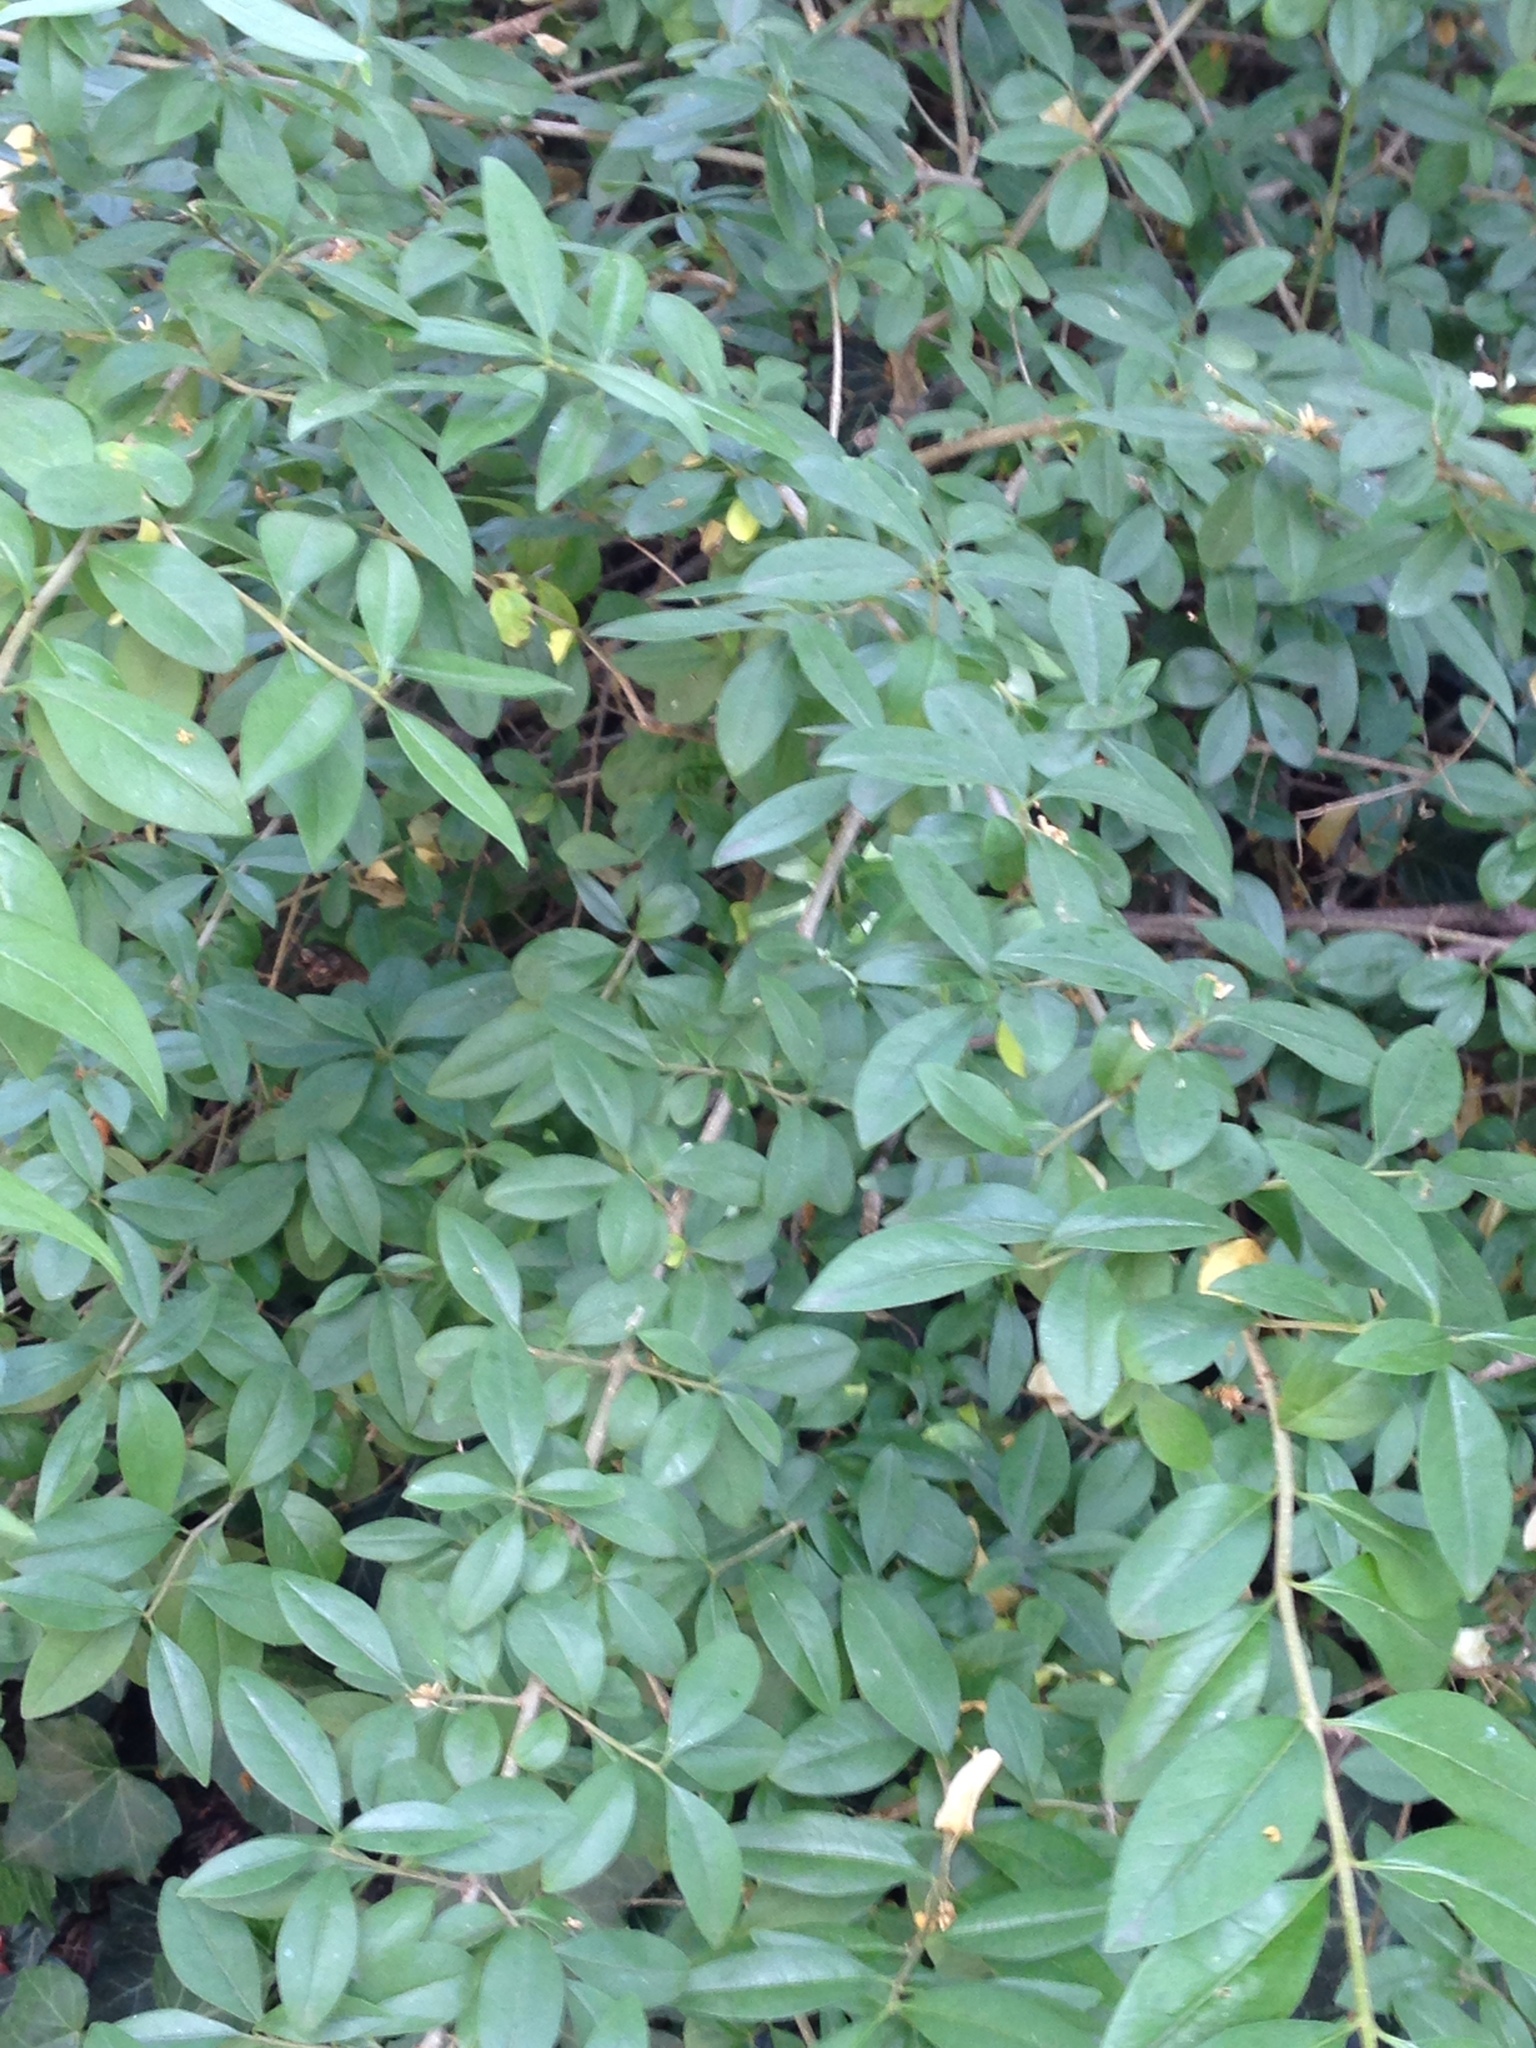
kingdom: Plantae
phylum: Tracheophyta
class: Magnoliopsida
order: Lamiales
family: Oleaceae
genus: Ligustrum
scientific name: Ligustrum vulgare
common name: Wild privet
